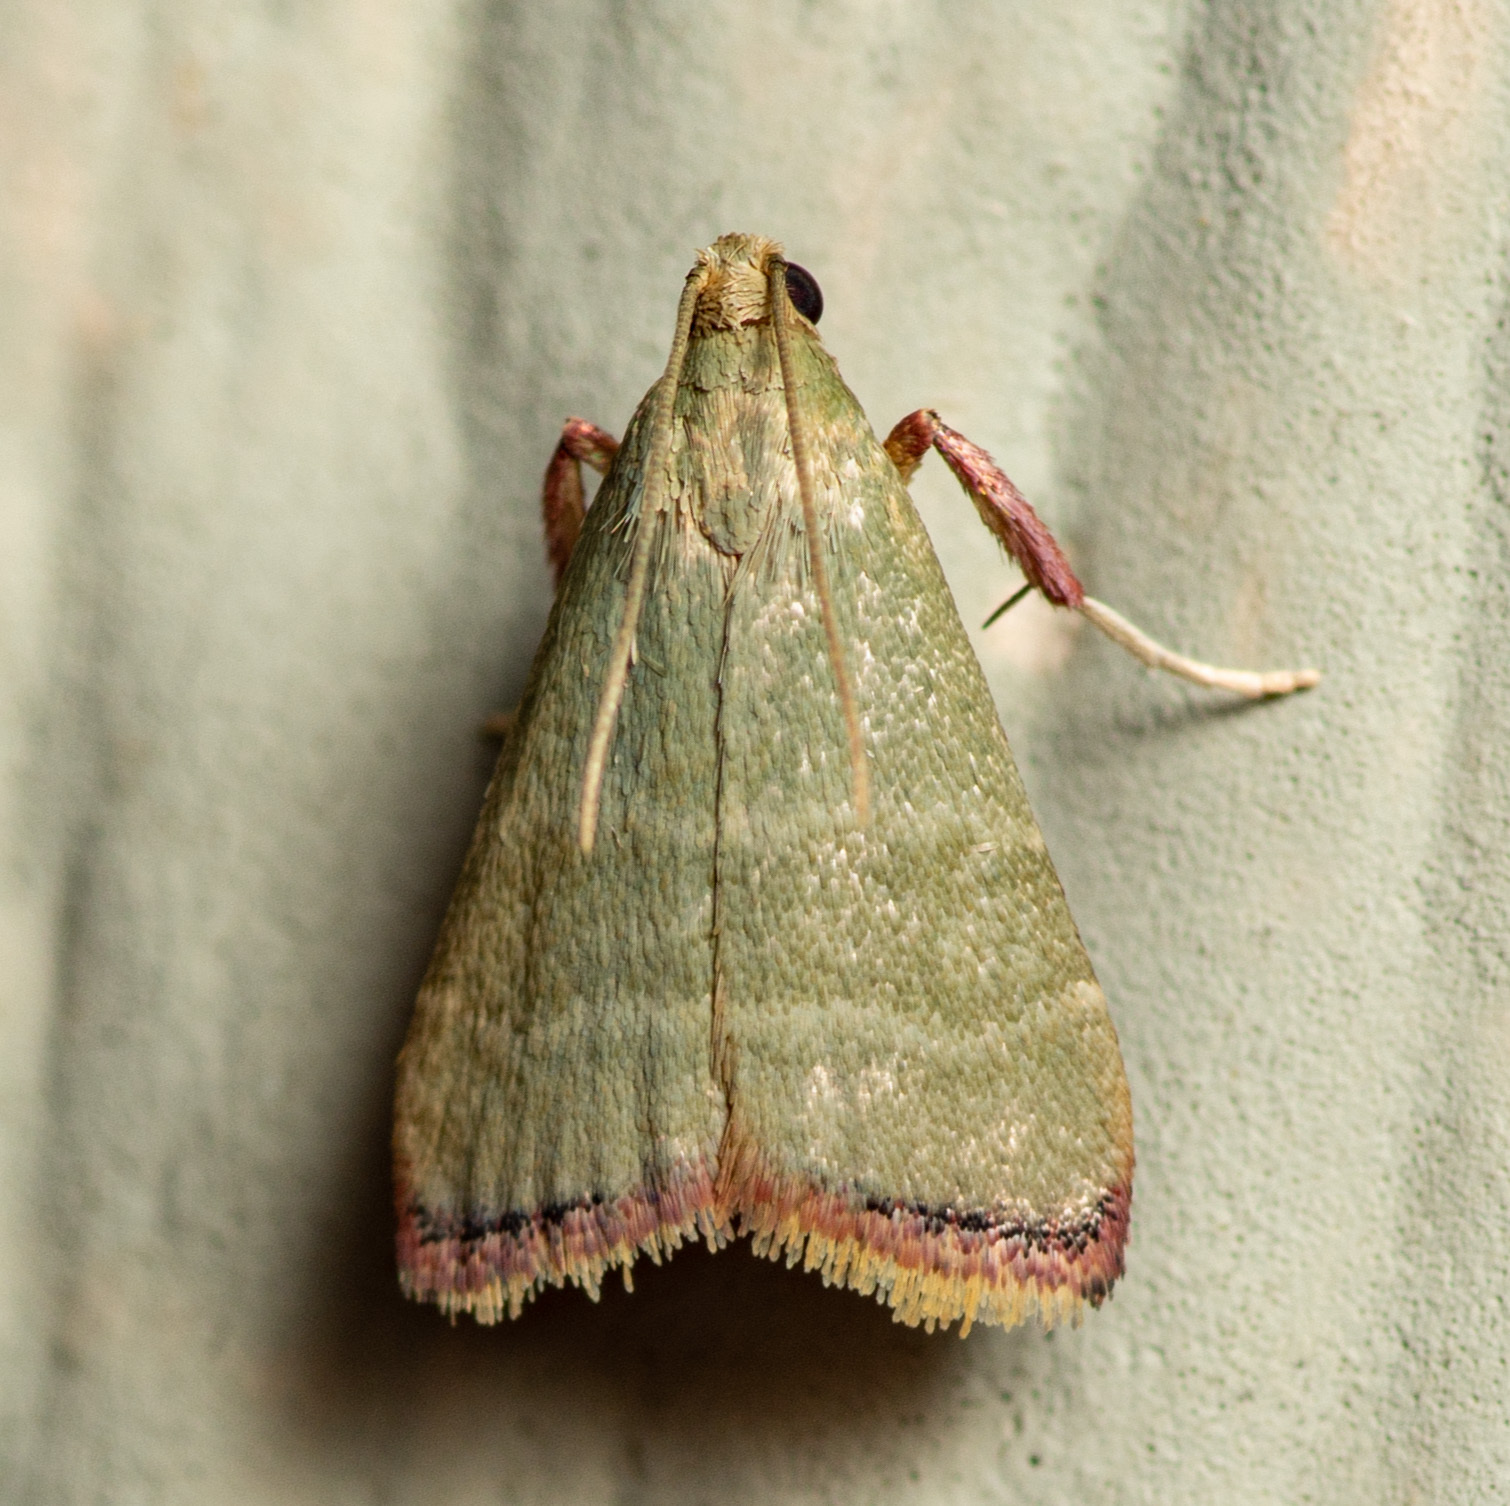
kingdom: Animalia
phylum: Arthropoda
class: Insecta
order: Lepidoptera
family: Pyralidae
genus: Arta
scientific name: Arta olivalis
